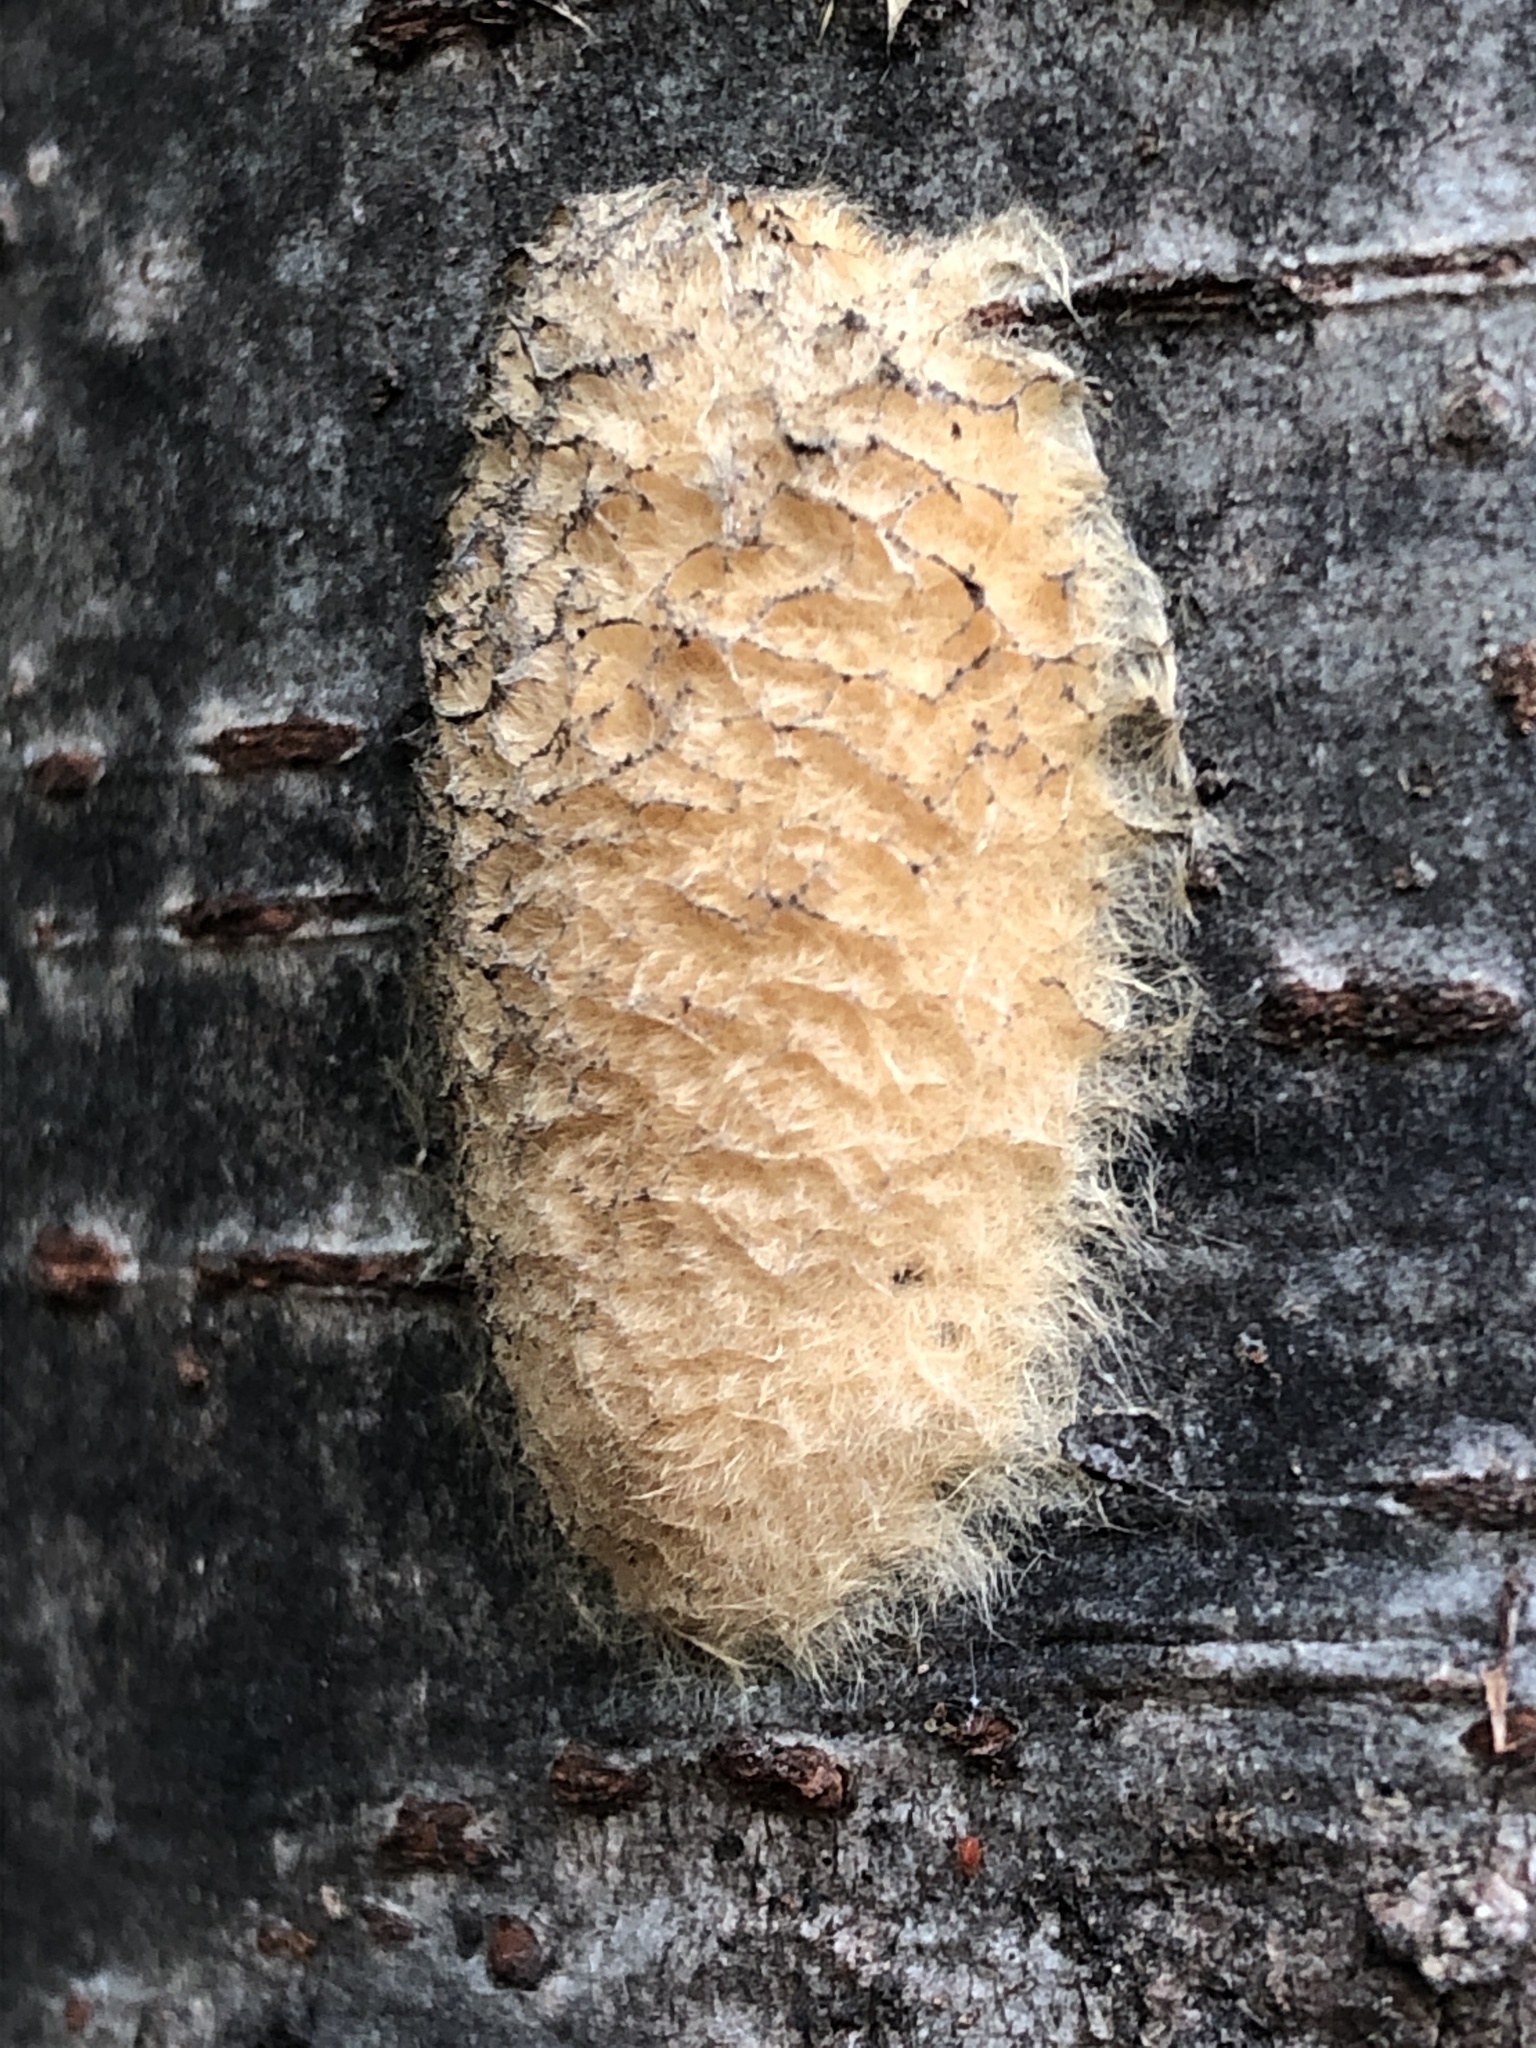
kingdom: Animalia
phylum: Arthropoda
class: Insecta
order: Lepidoptera
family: Erebidae
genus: Lymantria
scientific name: Lymantria dispar
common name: Gypsy moth
